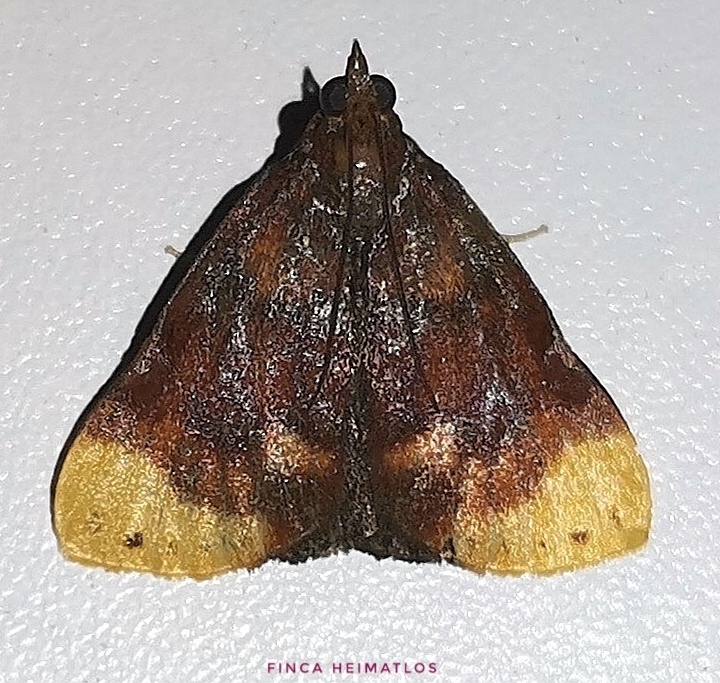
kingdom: Animalia
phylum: Arthropoda
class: Insecta
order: Lepidoptera
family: Pyralidae
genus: Paramacna
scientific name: Paramacna nattereri
